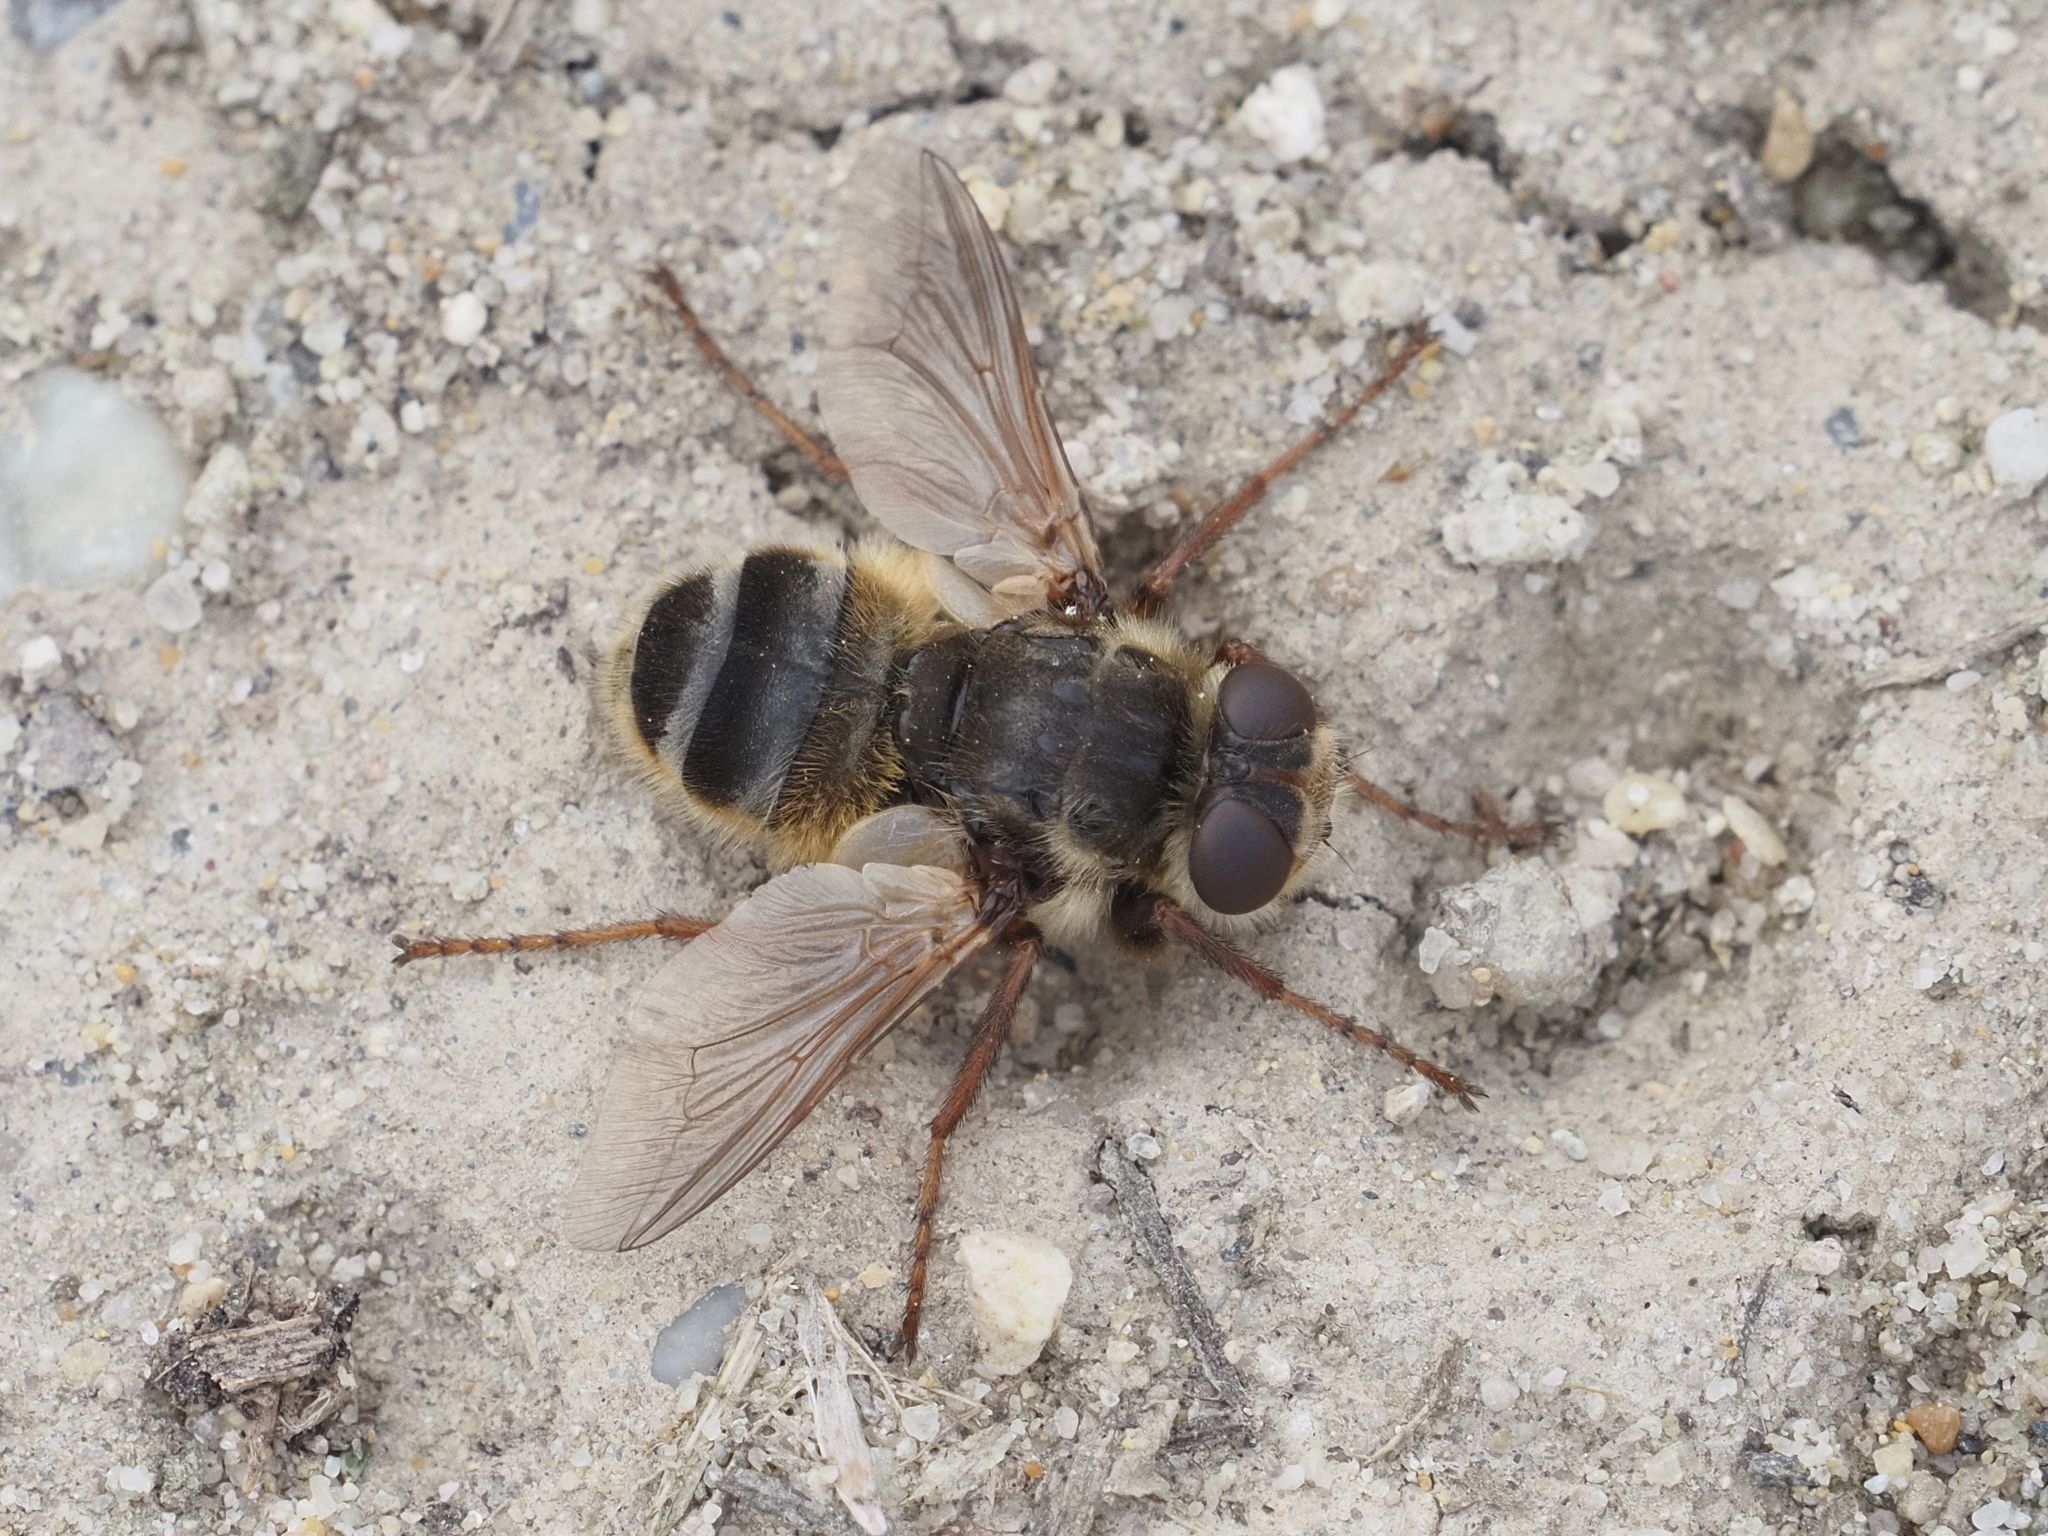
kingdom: Animalia
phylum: Arthropoda
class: Insecta
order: Diptera
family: Oestridae
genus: Hypoderma
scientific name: Hypoderma diana
